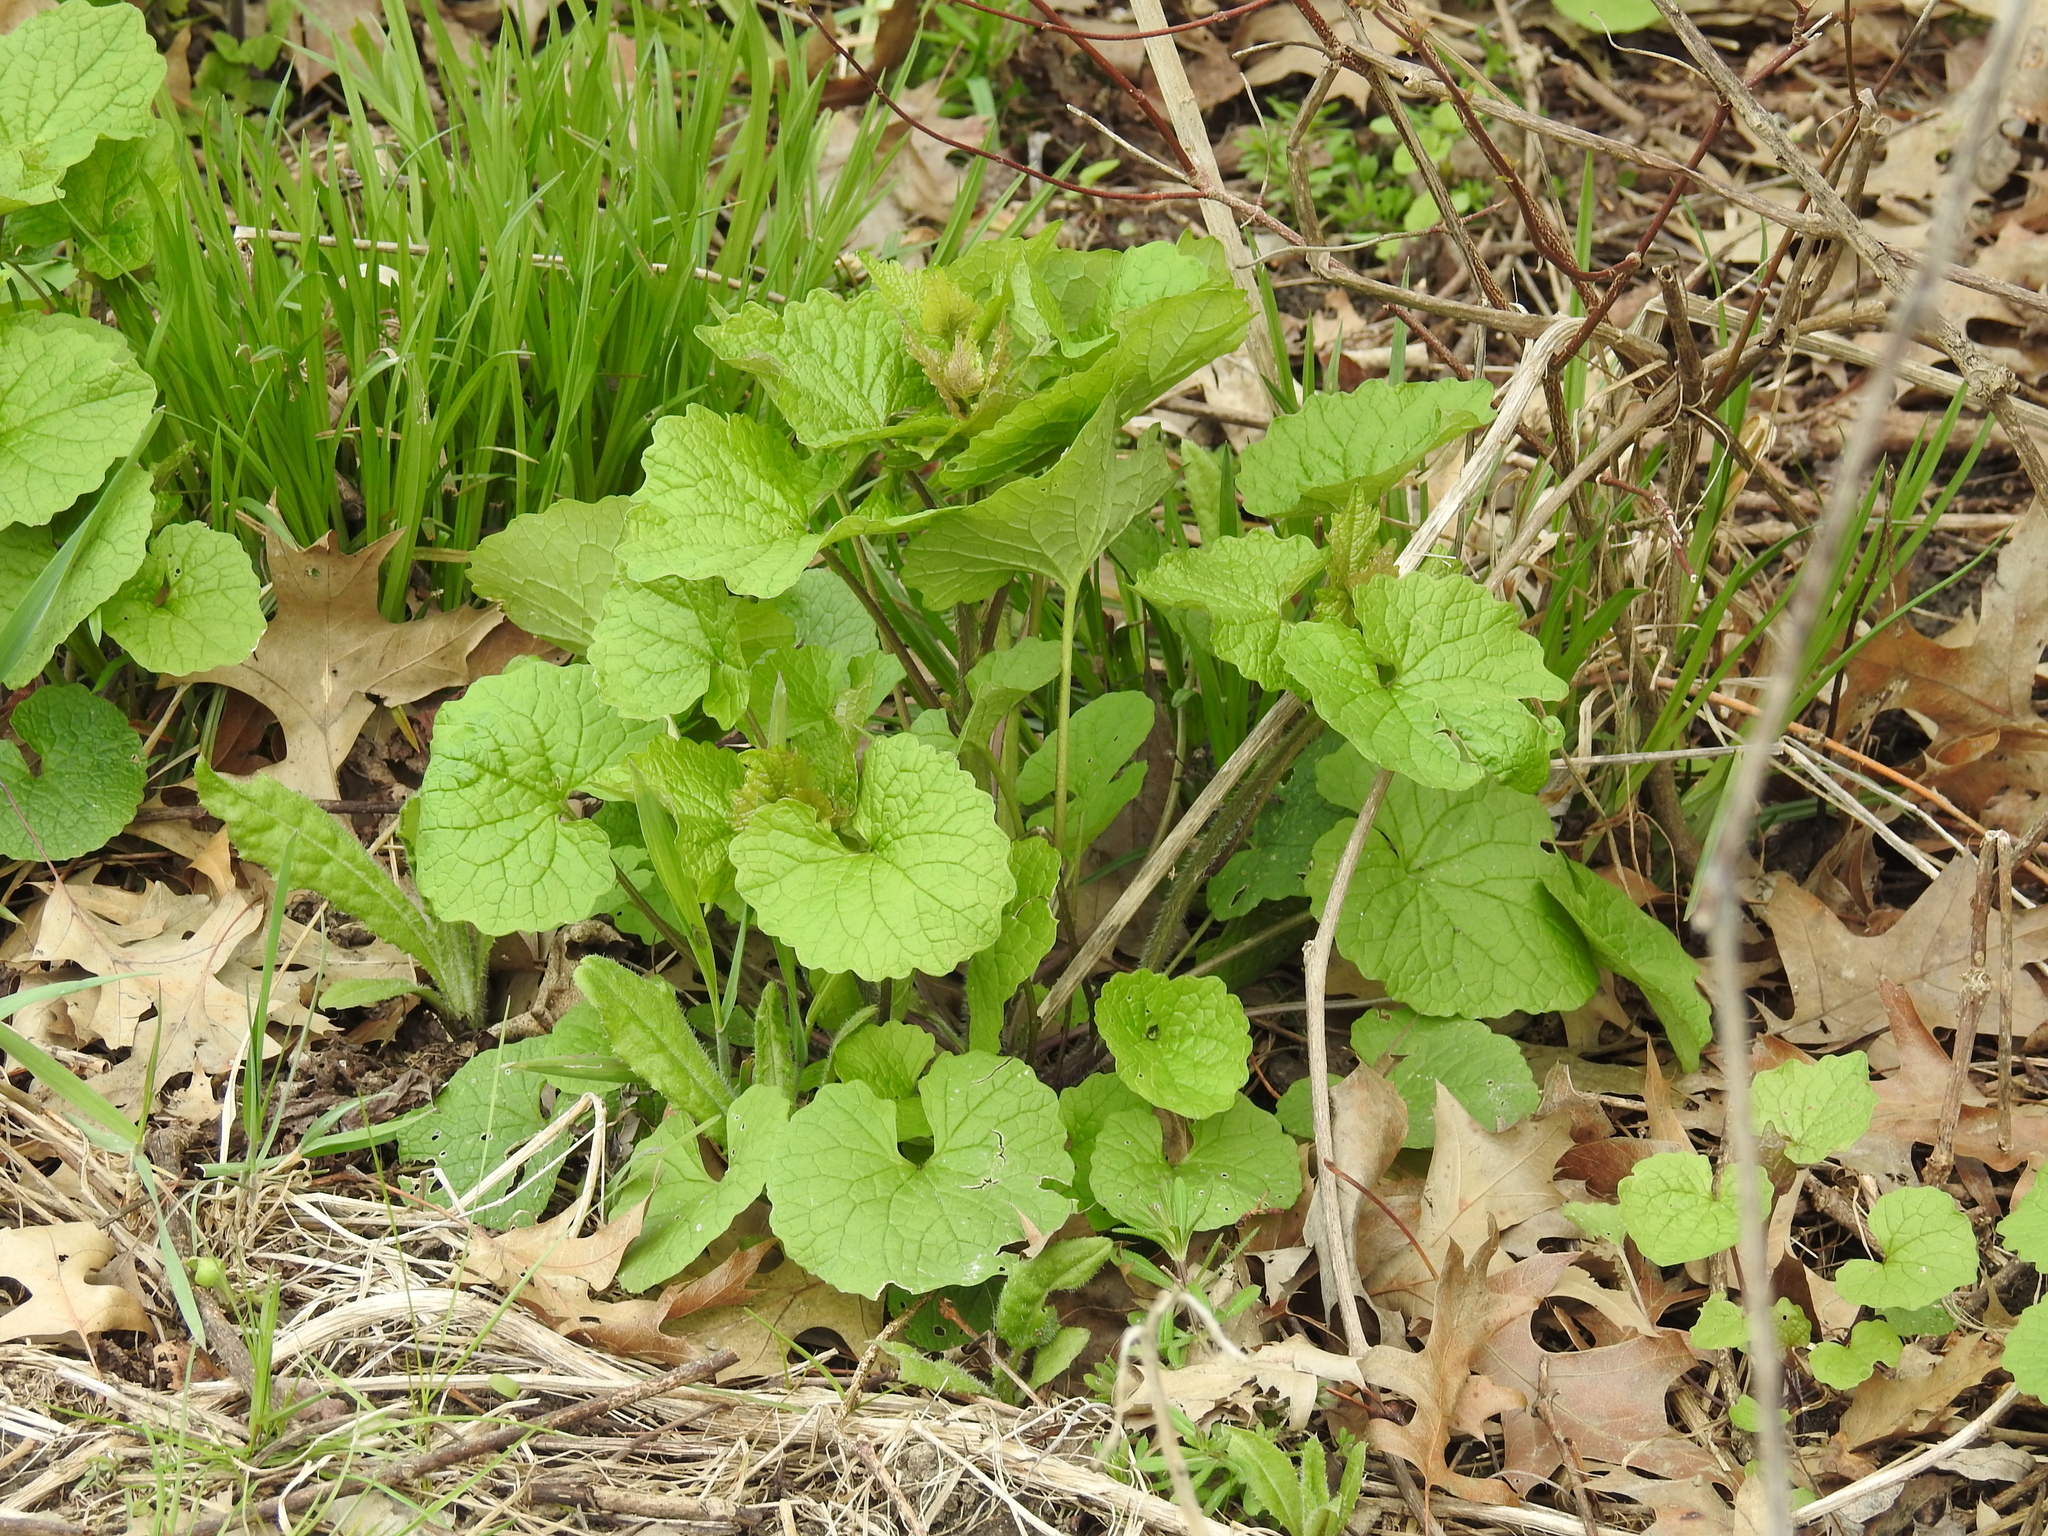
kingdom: Plantae
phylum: Tracheophyta
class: Magnoliopsida
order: Brassicales
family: Brassicaceae
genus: Alliaria
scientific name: Alliaria petiolata
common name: Garlic mustard
